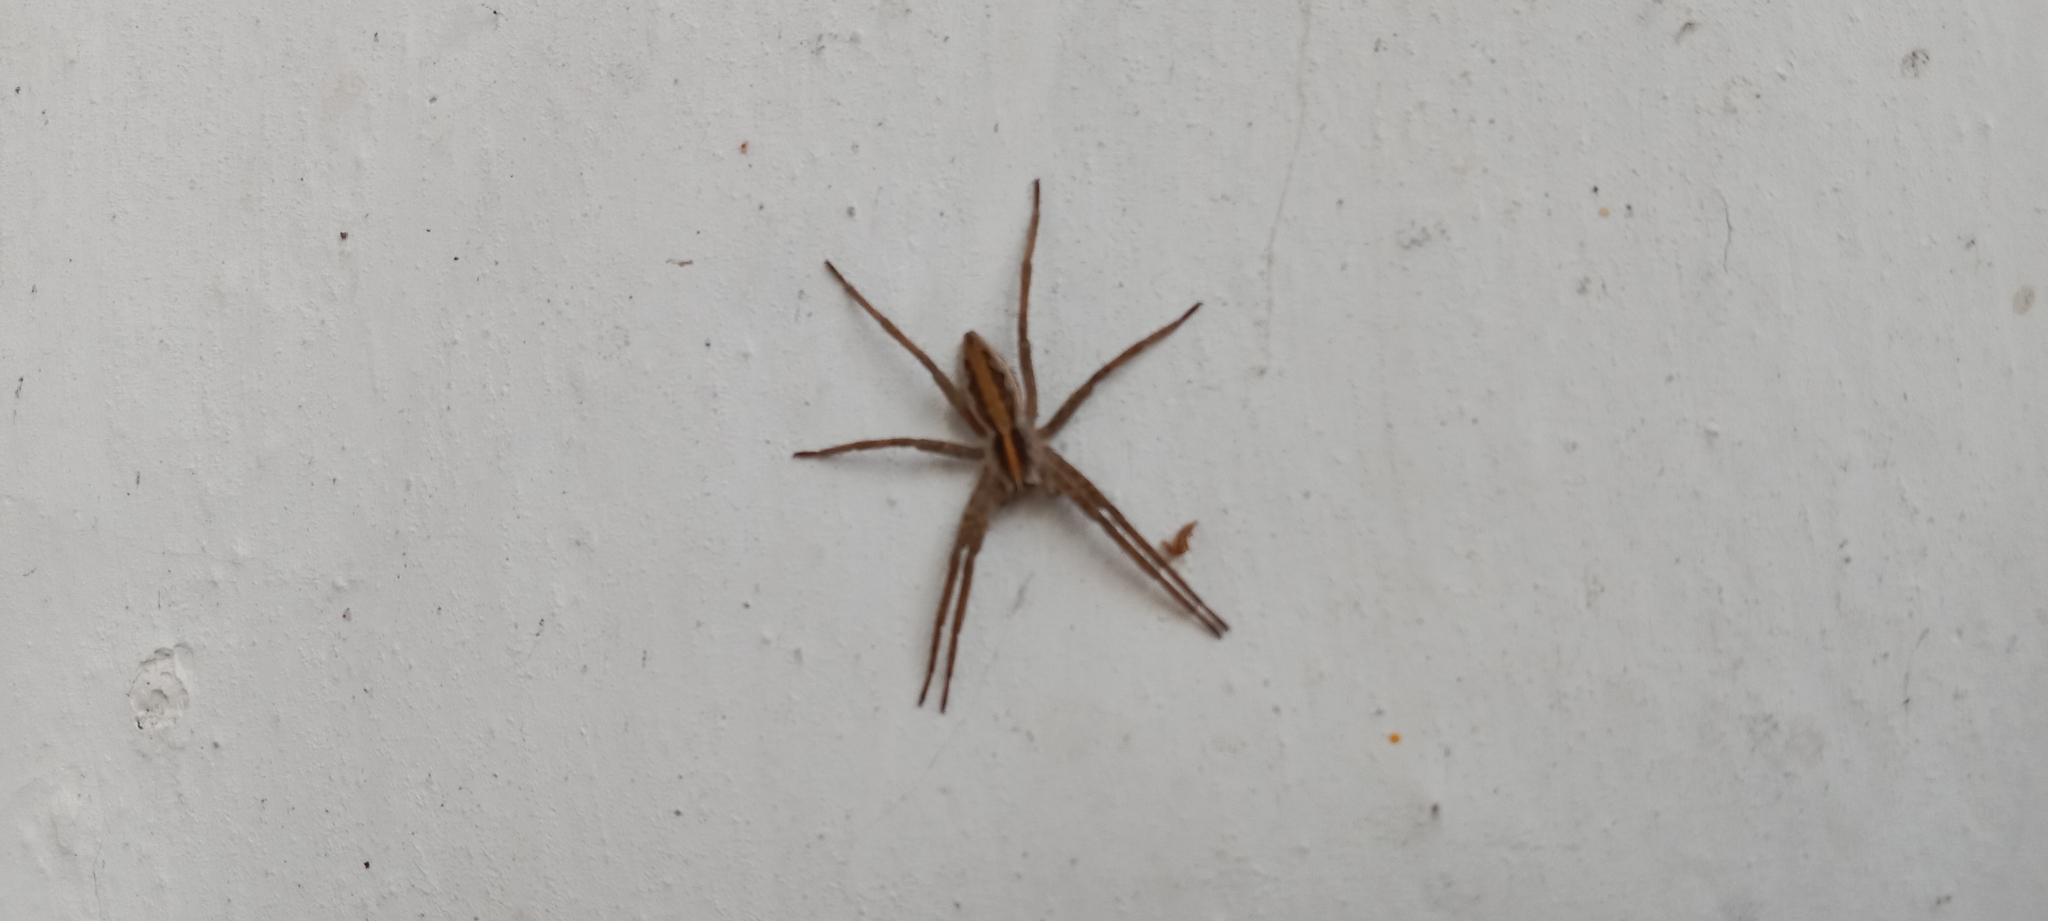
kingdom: Animalia
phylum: Arthropoda
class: Arachnida
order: Araneae
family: Pisauridae
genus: Pisaura
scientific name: Pisaura
